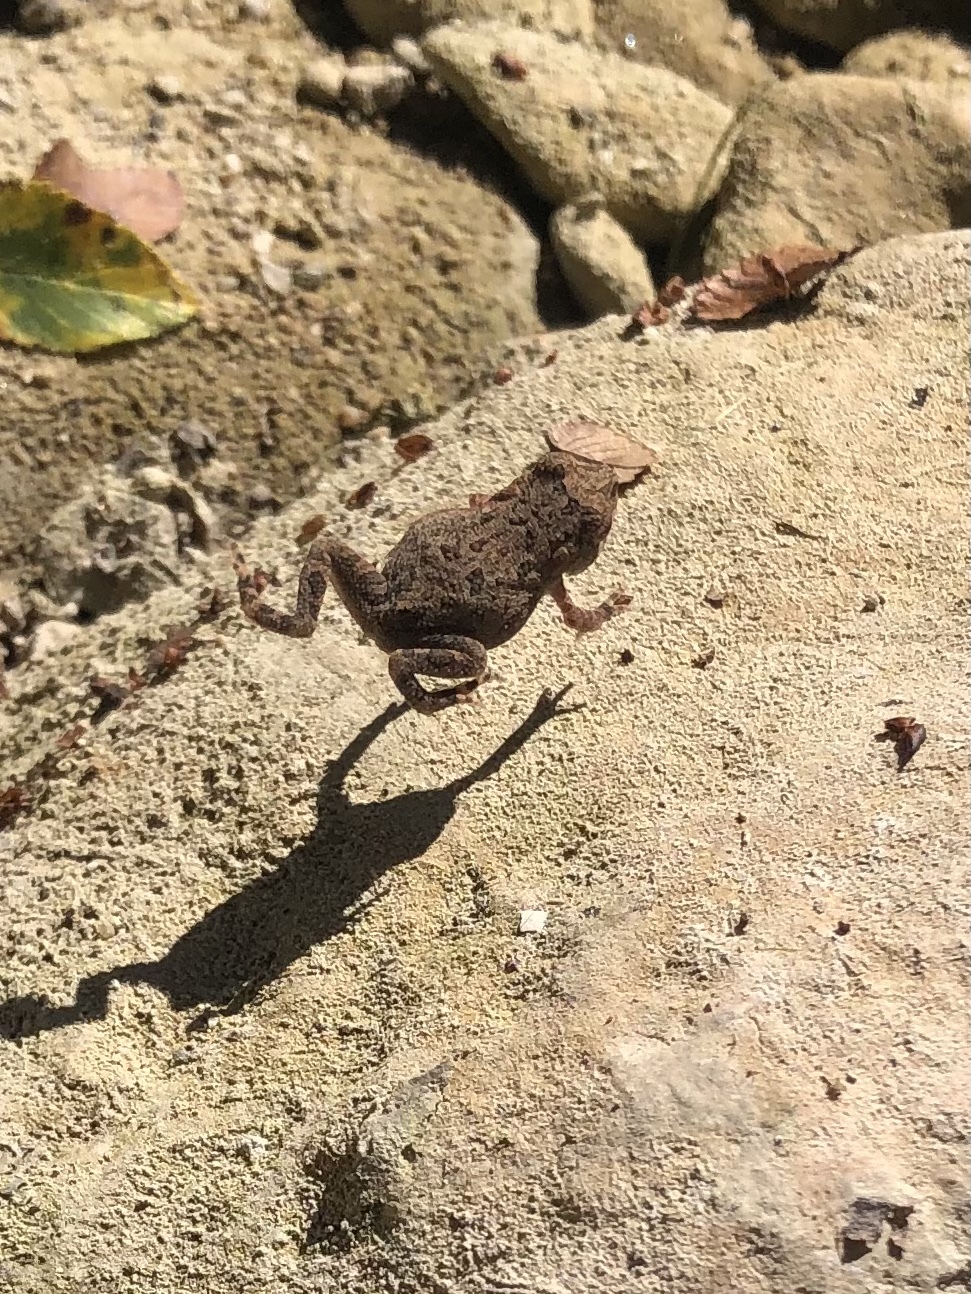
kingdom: Animalia
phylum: Chordata
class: Amphibia
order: Anura
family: Bufonidae
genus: Incilius
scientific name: Incilius nebulifer
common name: Gulf coast toad
